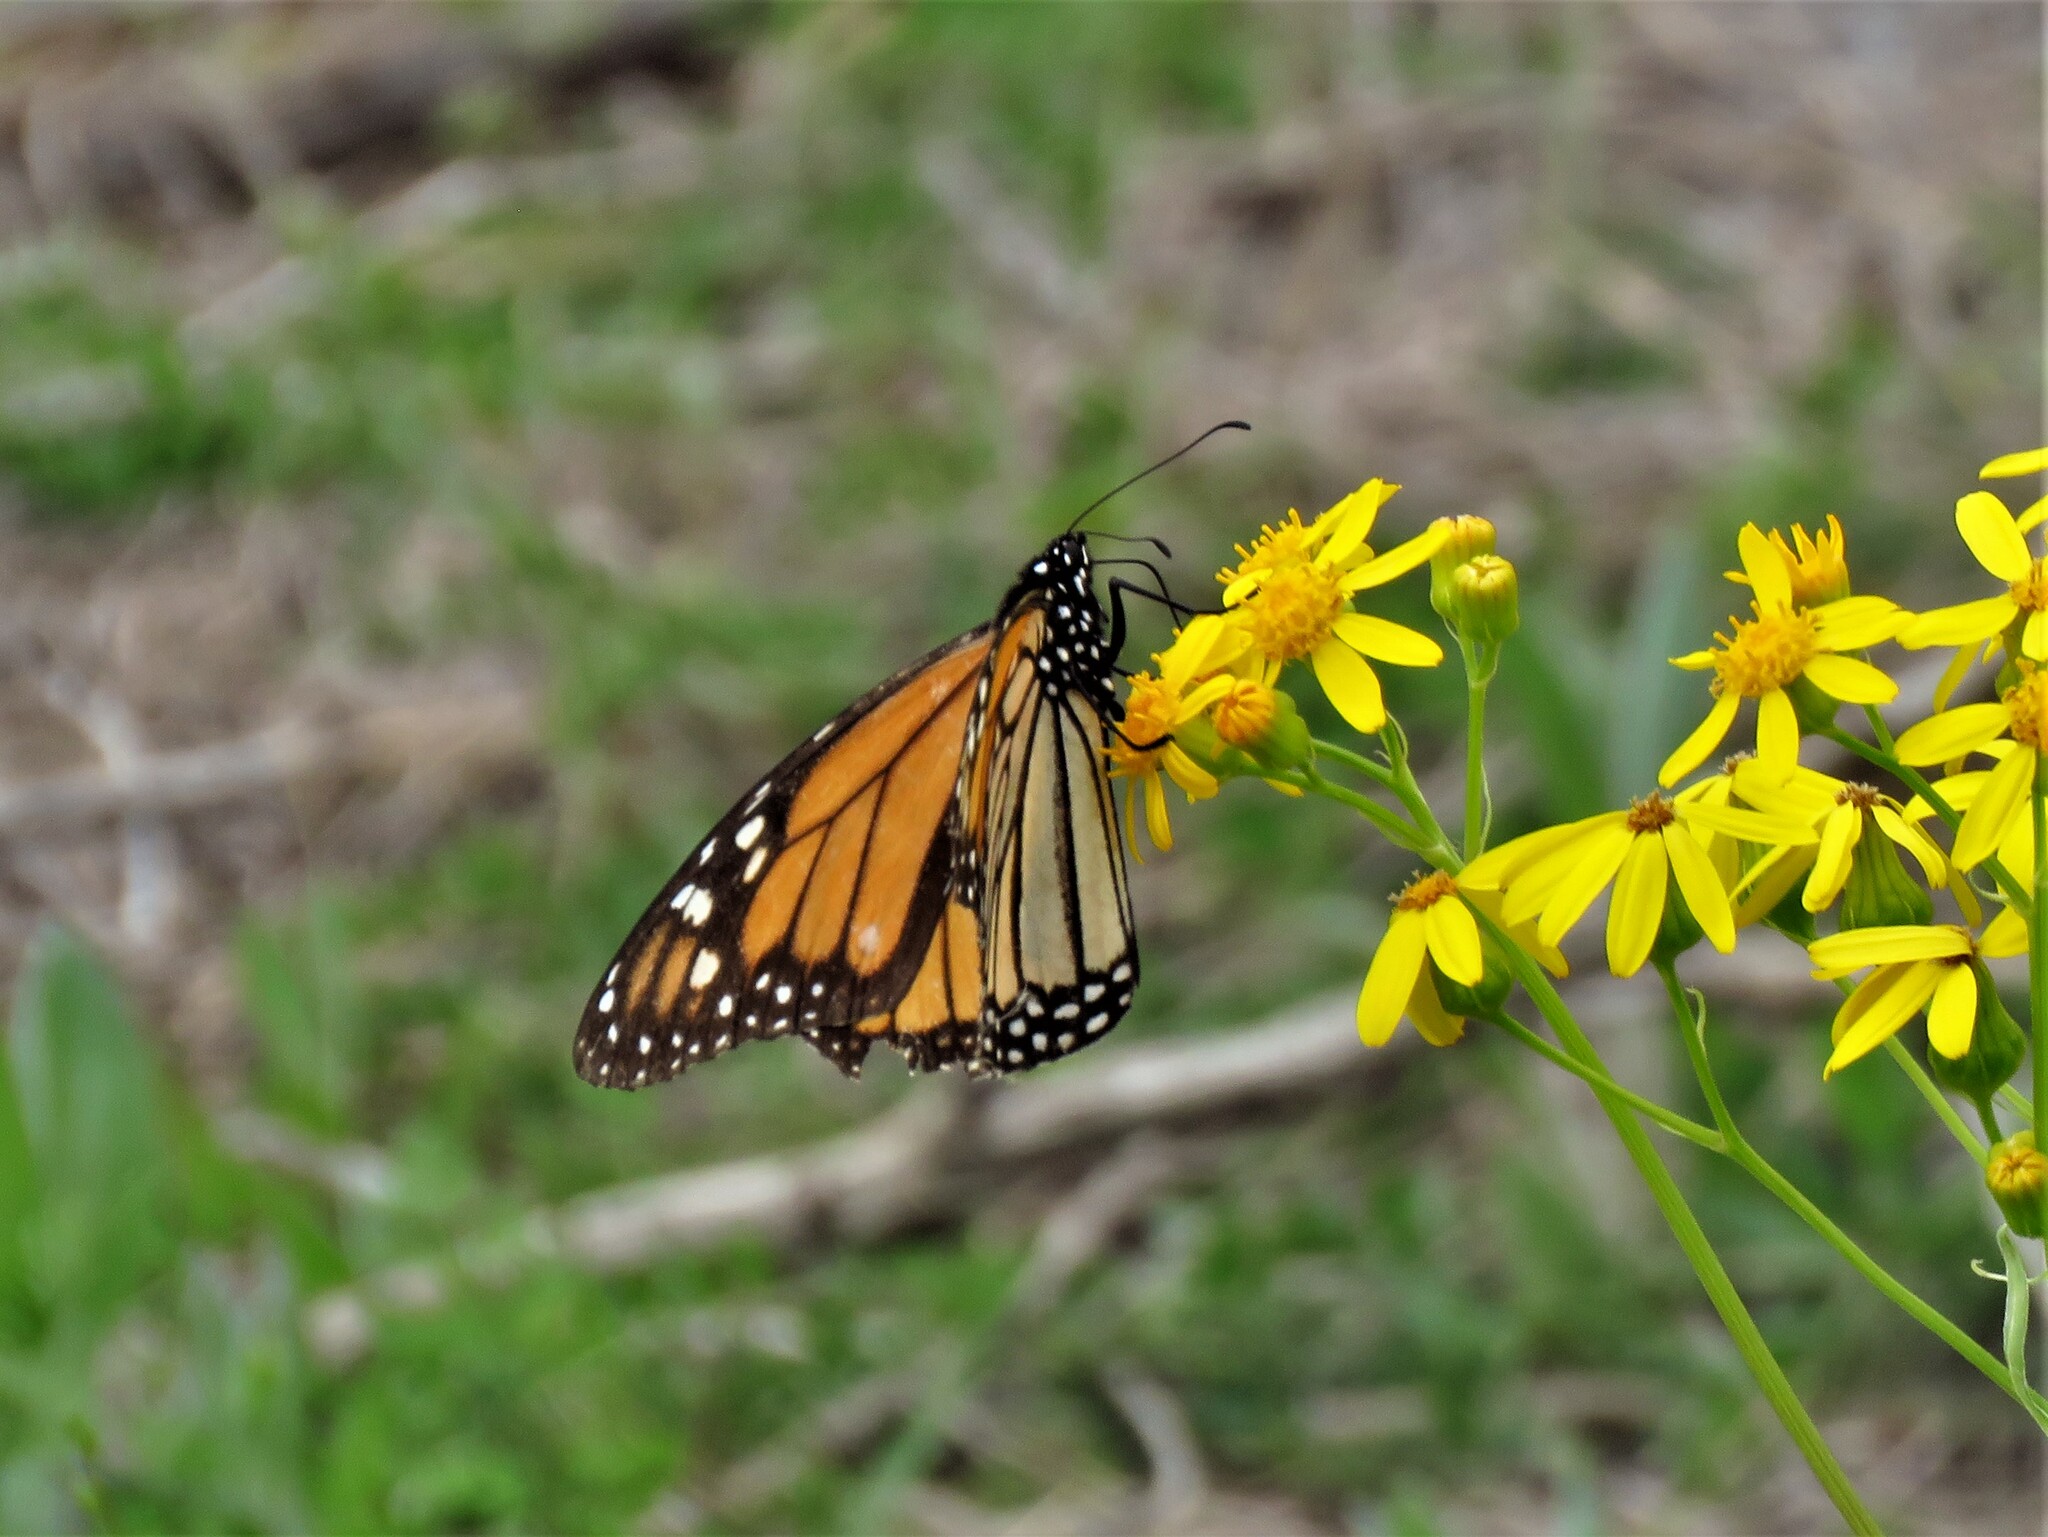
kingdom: Animalia
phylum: Arthropoda
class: Insecta
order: Lepidoptera
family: Nymphalidae
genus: Danaus
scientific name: Danaus plexippus
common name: Monarch
